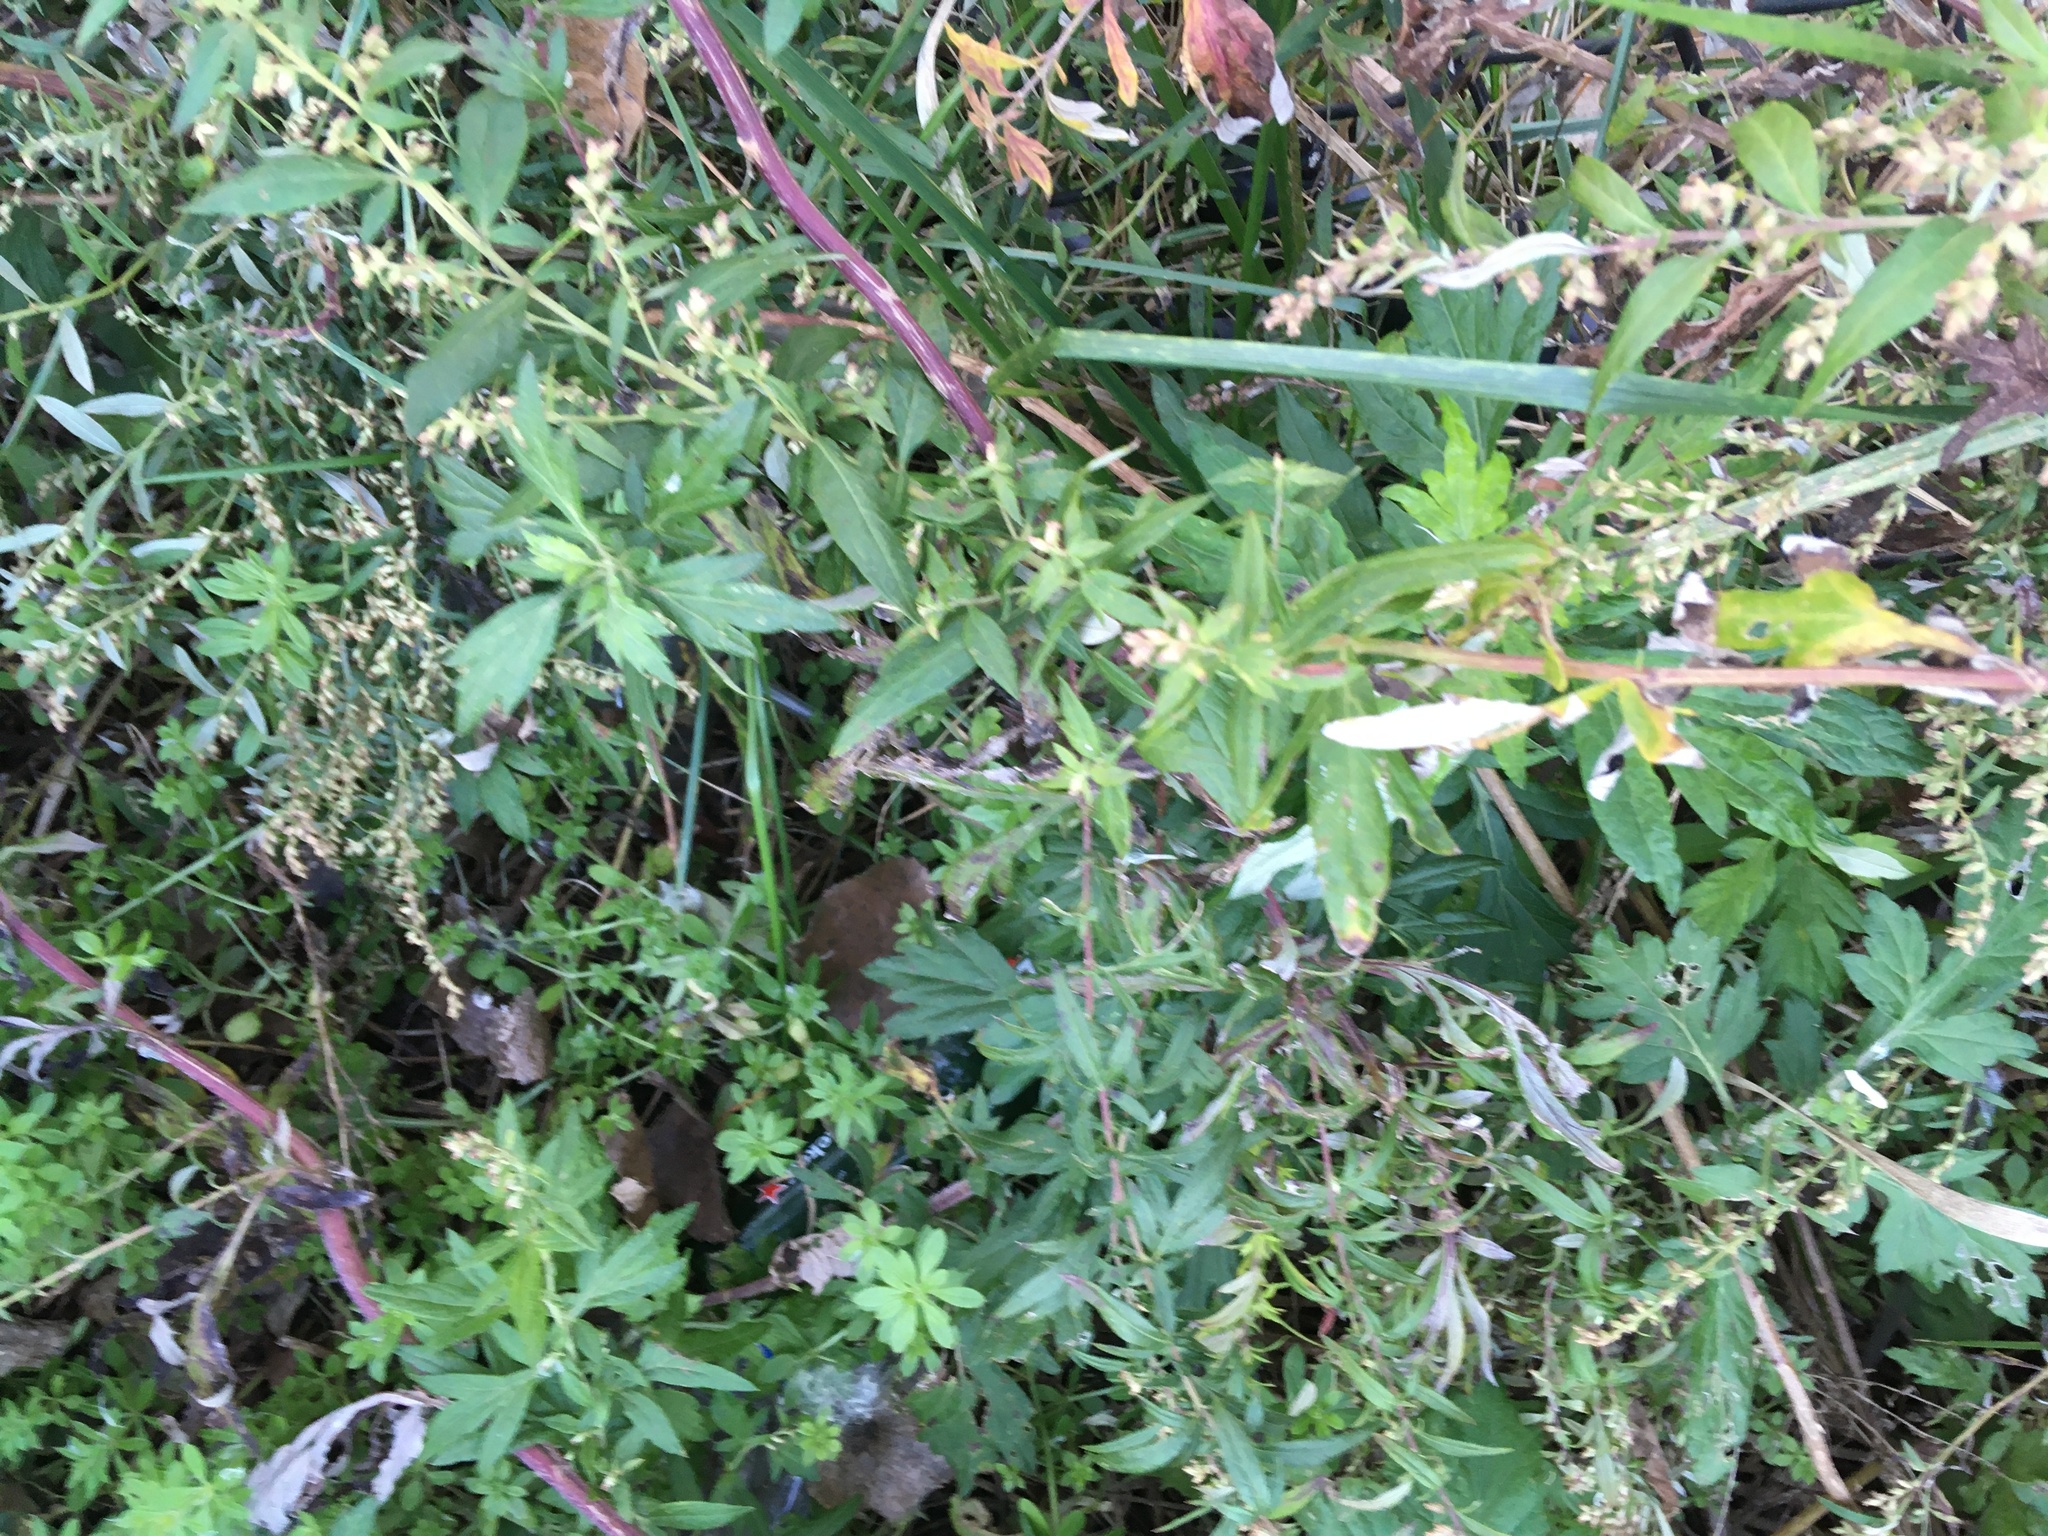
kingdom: Plantae
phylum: Tracheophyta
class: Magnoliopsida
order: Asterales
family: Asteraceae
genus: Artemisia
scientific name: Artemisia vulgaris
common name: Mugwort
